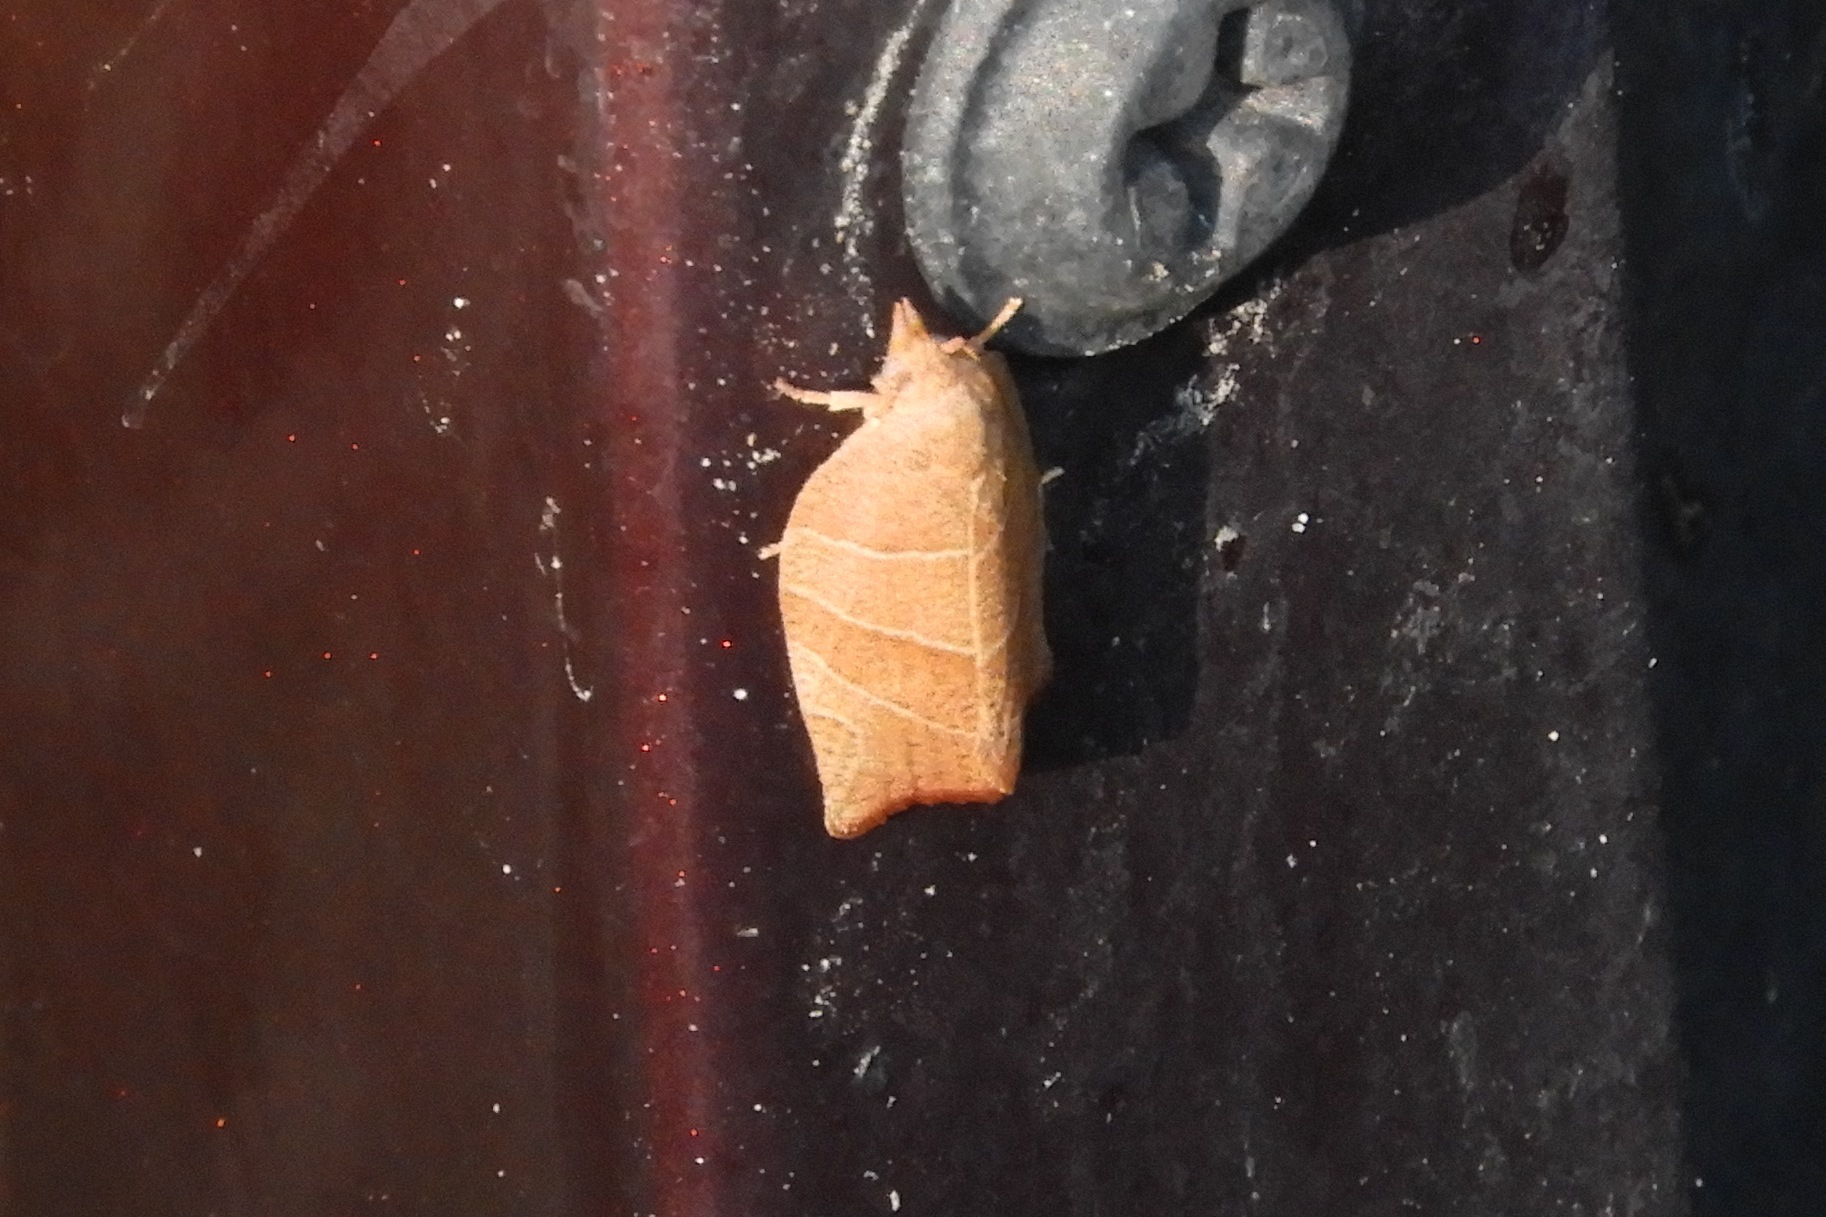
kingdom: Animalia
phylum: Arthropoda
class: Insecta
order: Lepidoptera
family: Tortricidae
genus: Pandemis
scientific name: Pandemis limitata
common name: Three-lined leafroller moth
